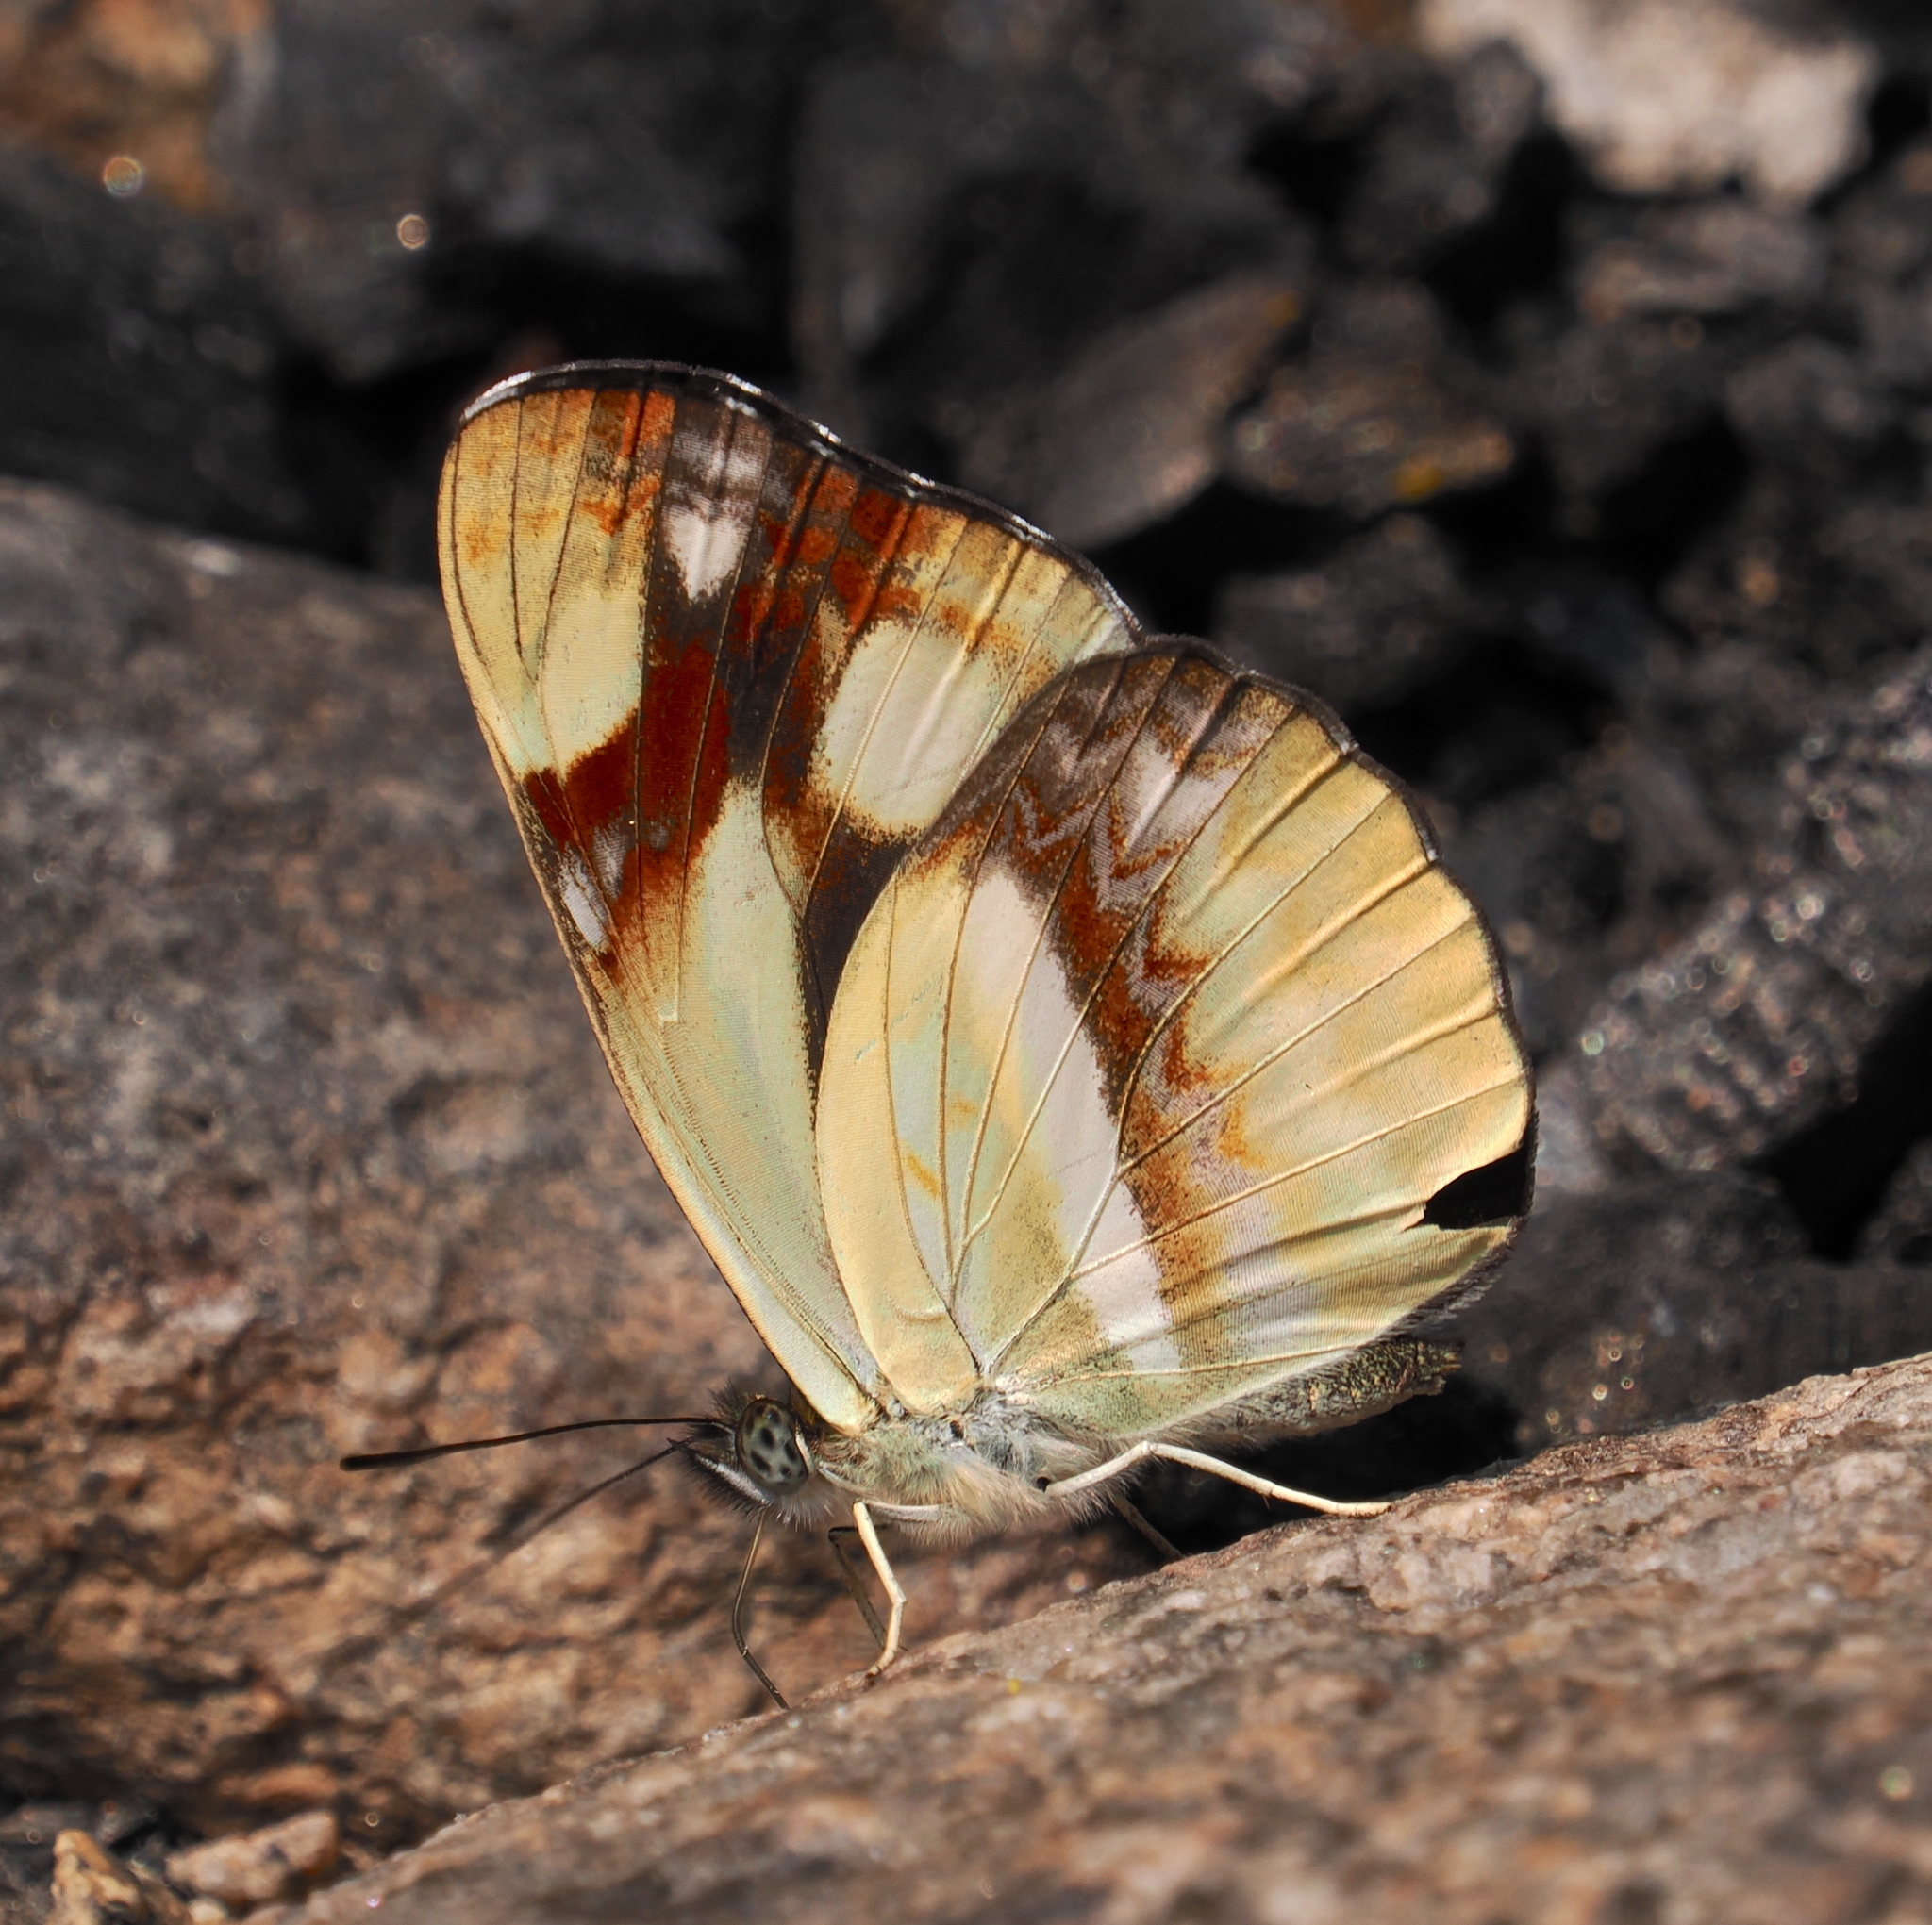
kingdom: Animalia
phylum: Arthropoda
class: Insecta
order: Lepidoptera
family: Nymphalidae
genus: Neptis
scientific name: Neptis armandia
